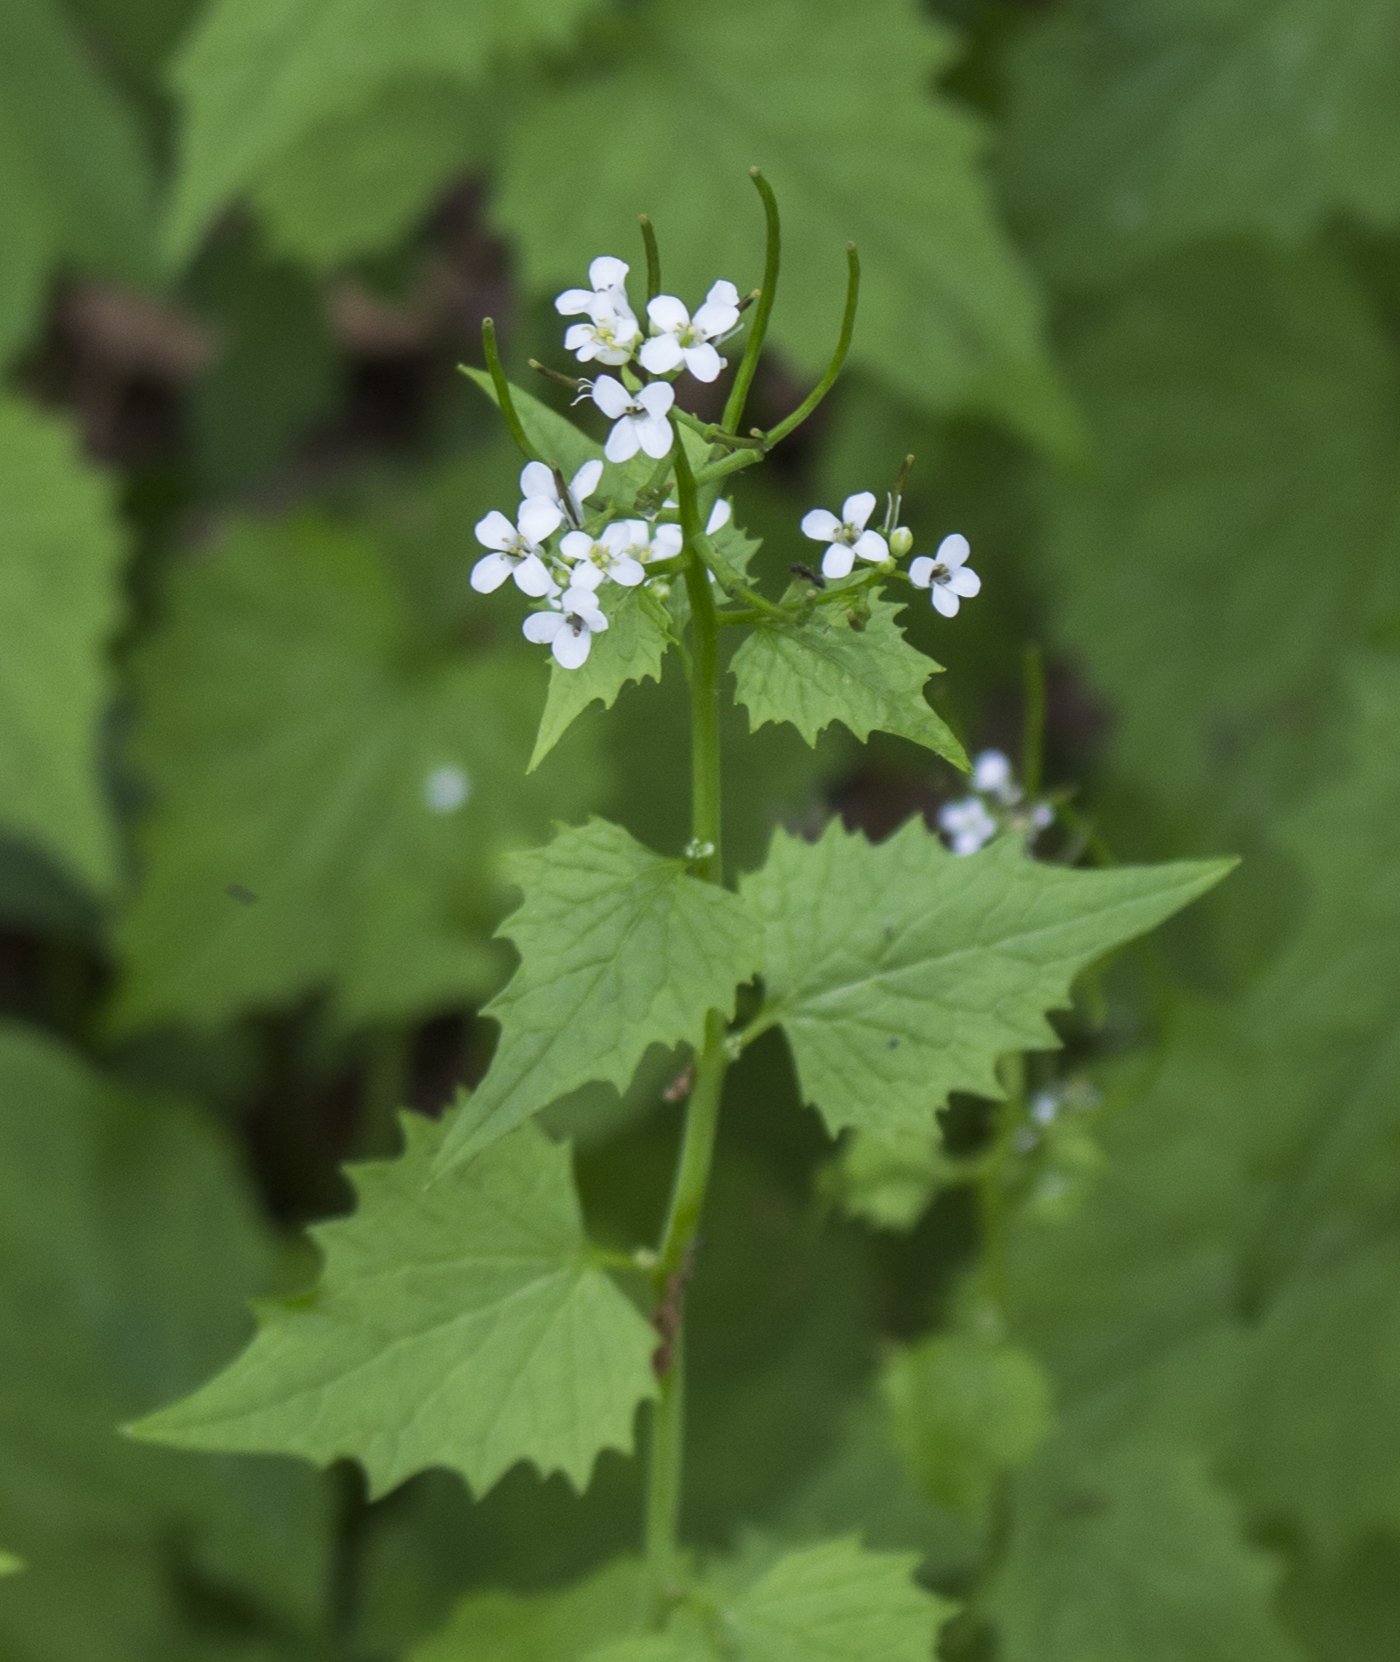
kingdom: Plantae
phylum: Tracheophyta
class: Magnoliopsida
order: Brassicales
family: Brassicaceae
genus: Alliaria
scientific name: Alliaria petiolata
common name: Garlic mustard
